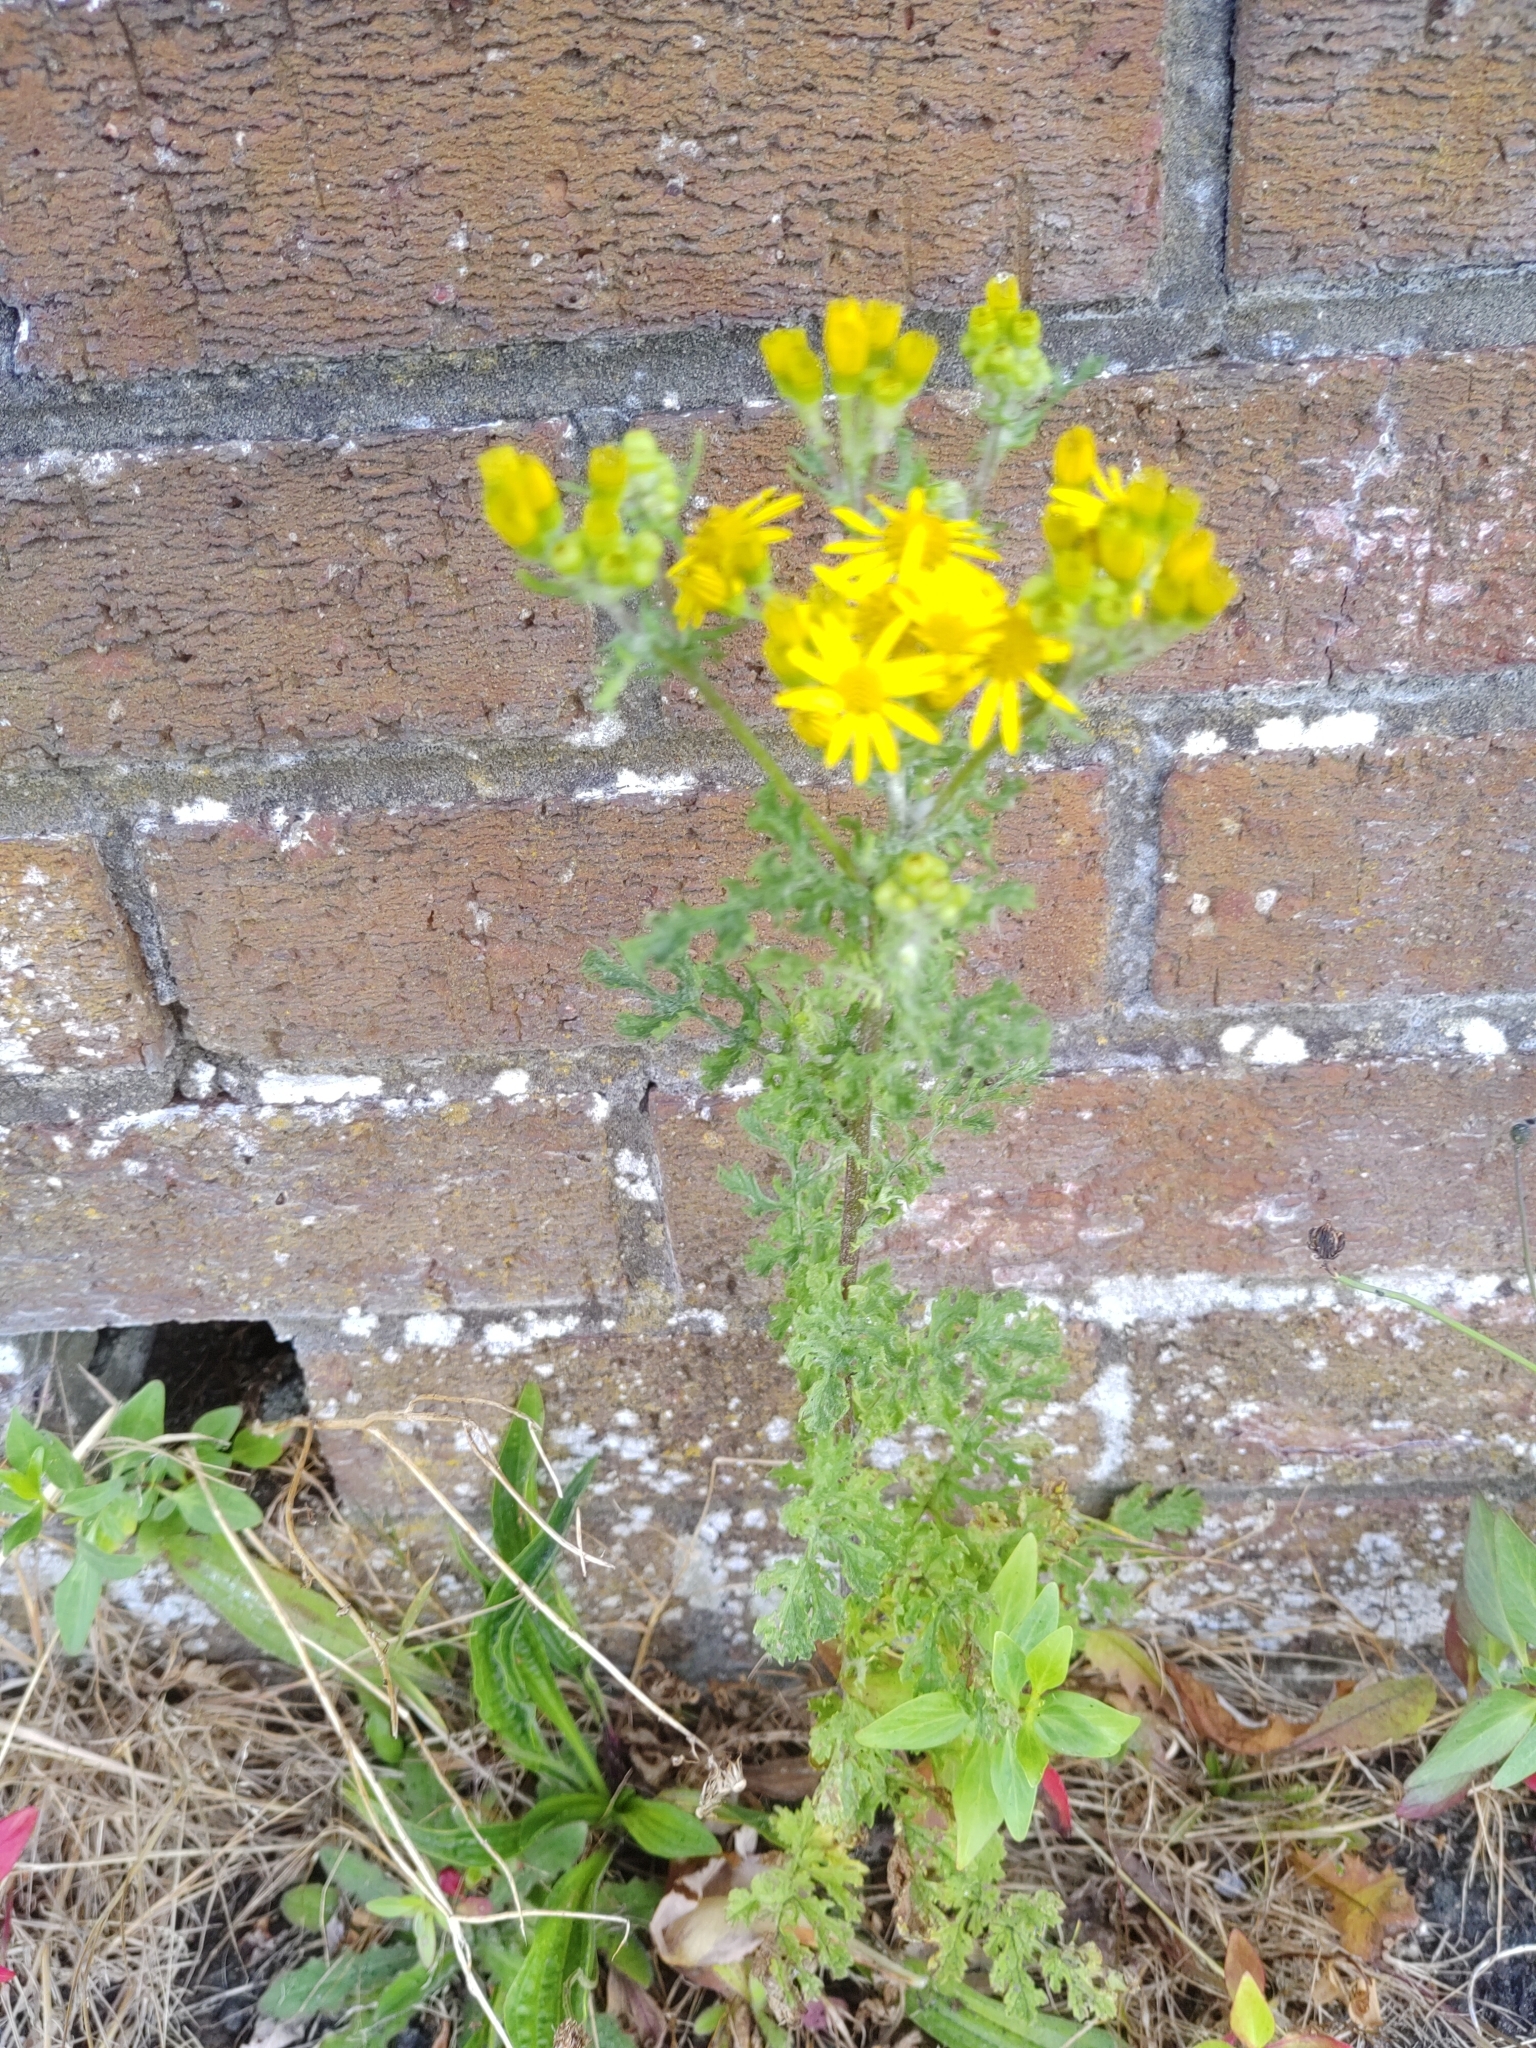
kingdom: Plantae
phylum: Tracheophyta
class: Magnoliopsida
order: Asterales
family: Asteraceae
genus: Jacobaea
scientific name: Jacobaea vulgaris
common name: Stinking willie
